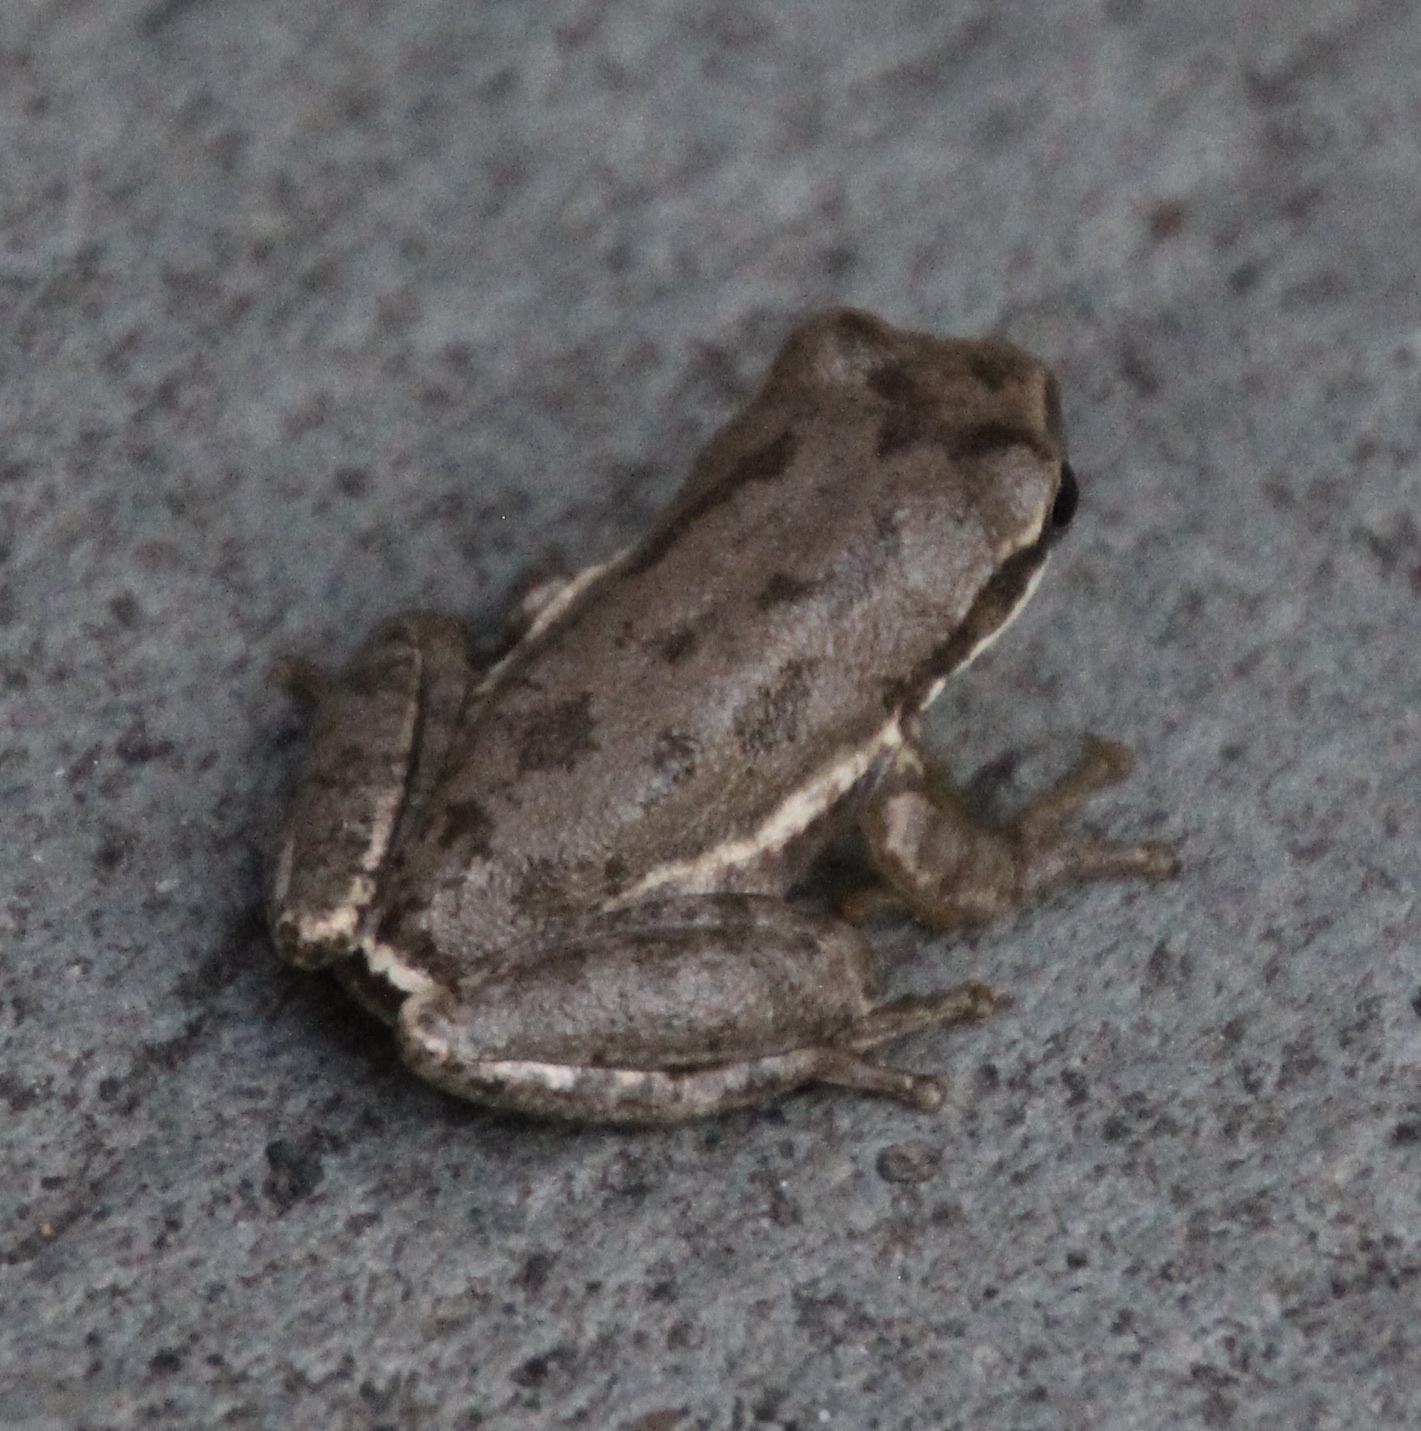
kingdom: Animalia
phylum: Chordata
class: Amphibia
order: Anura
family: Hylidae
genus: Dryophytes
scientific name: Dryophytes squirellus
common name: Squirrel treefrog
